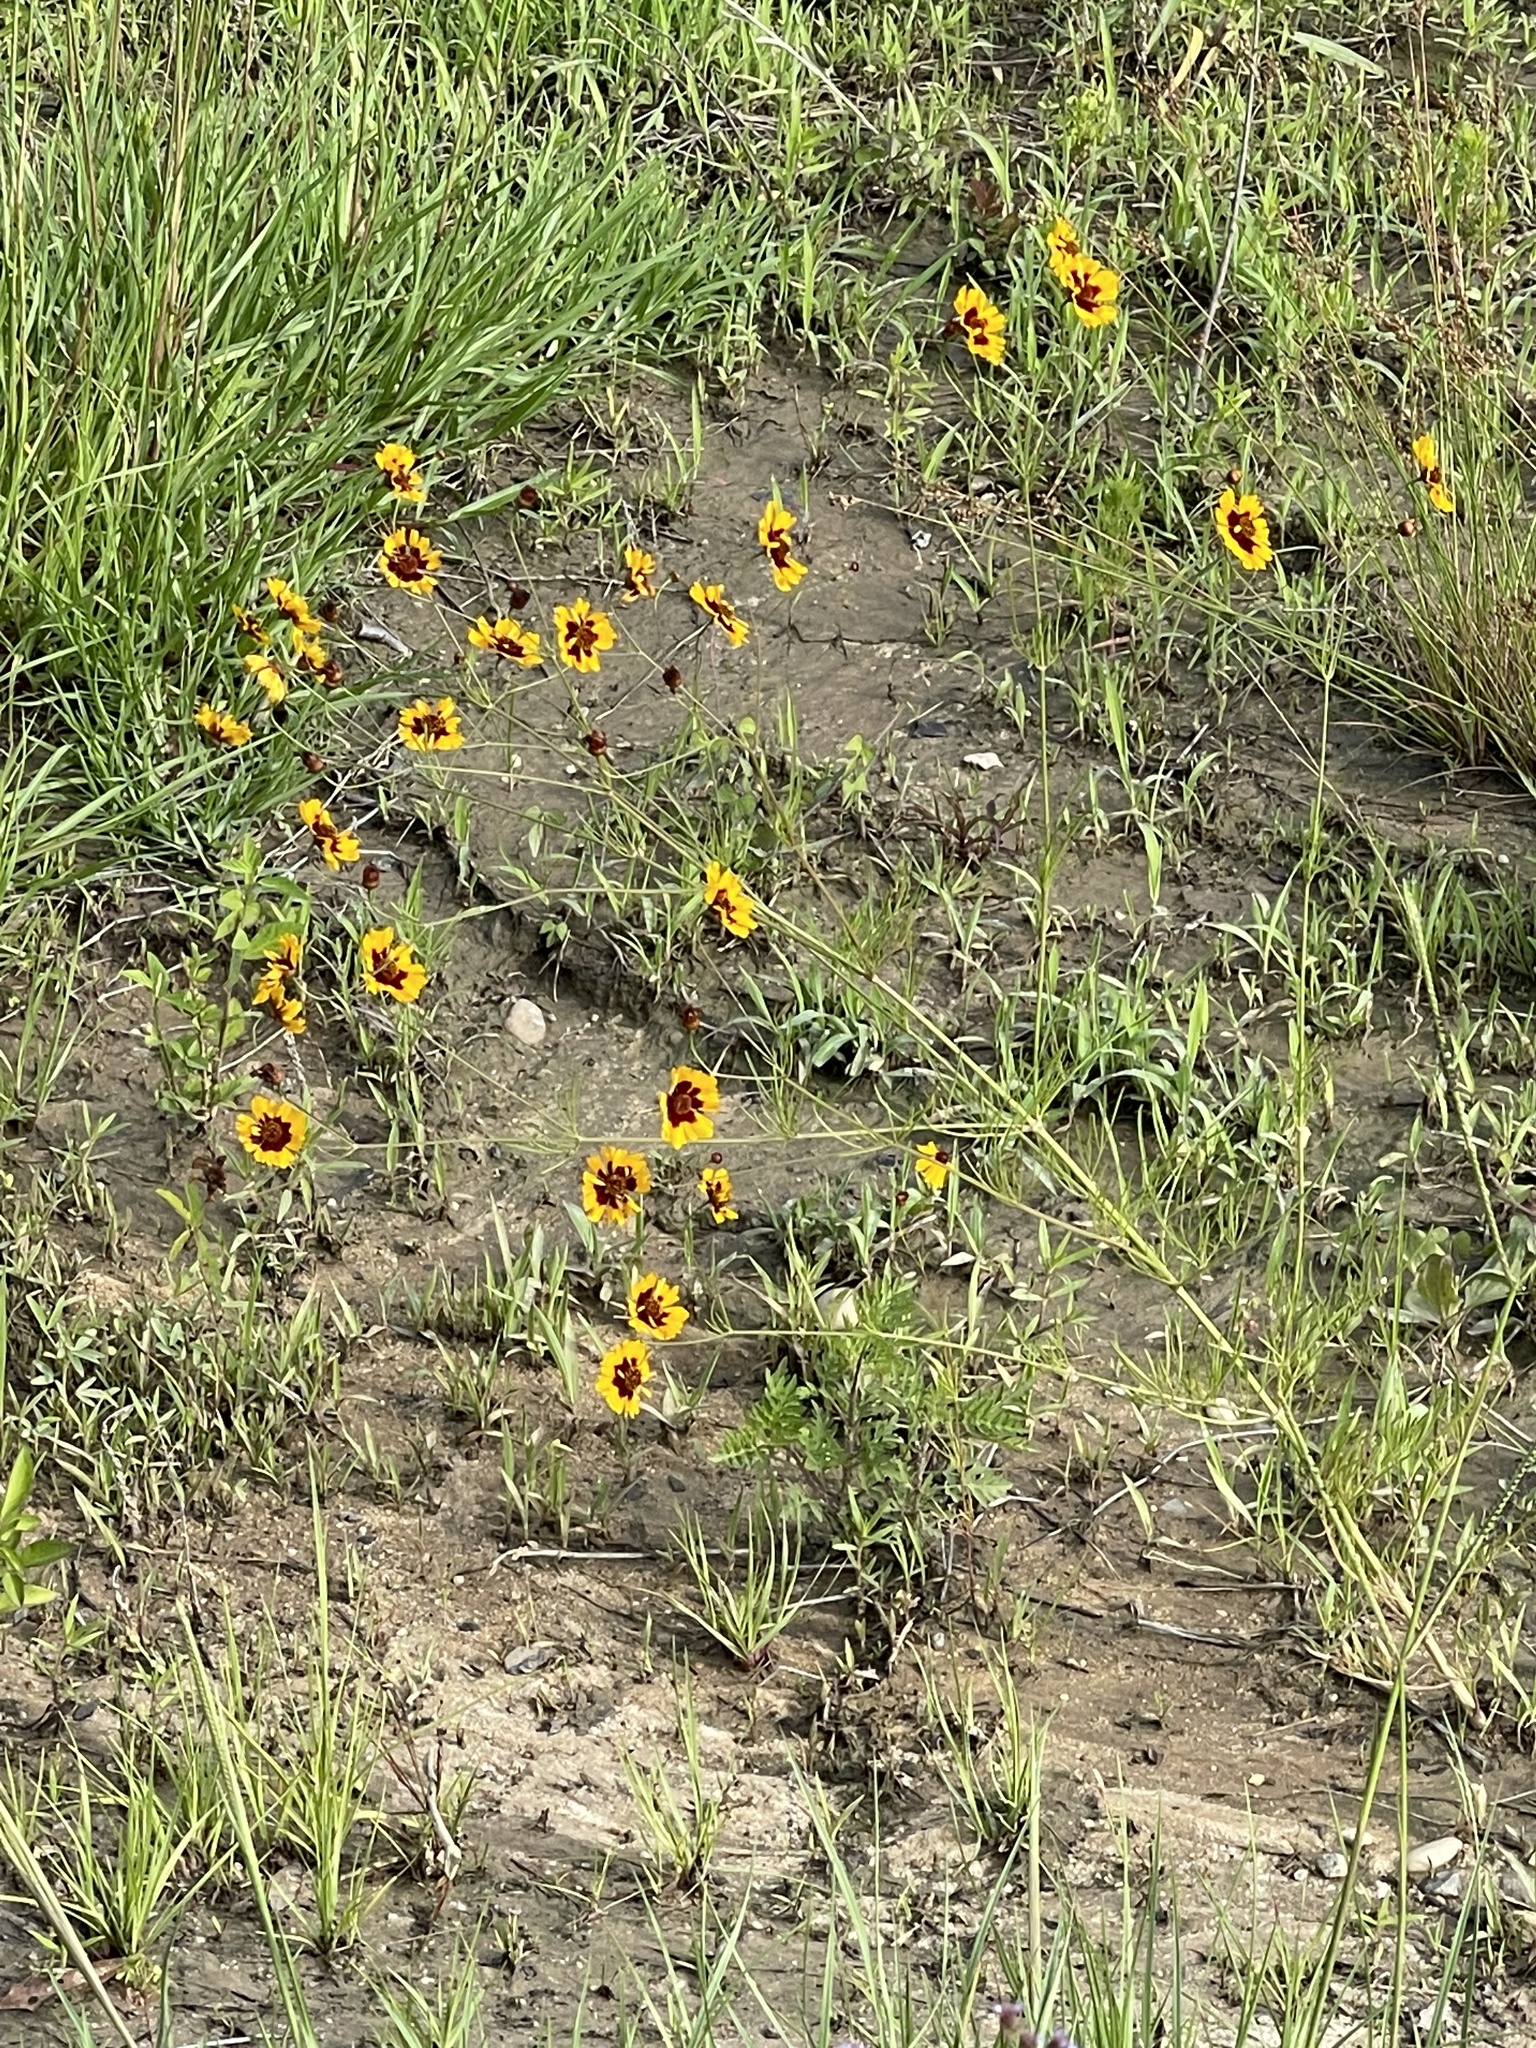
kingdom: Plantae
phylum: Tracheophyta
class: Magnoliopsida
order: Asterales
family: Asteraceae
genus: Coreopsis
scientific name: Coreopsis tinctoria
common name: Garden tickseed
